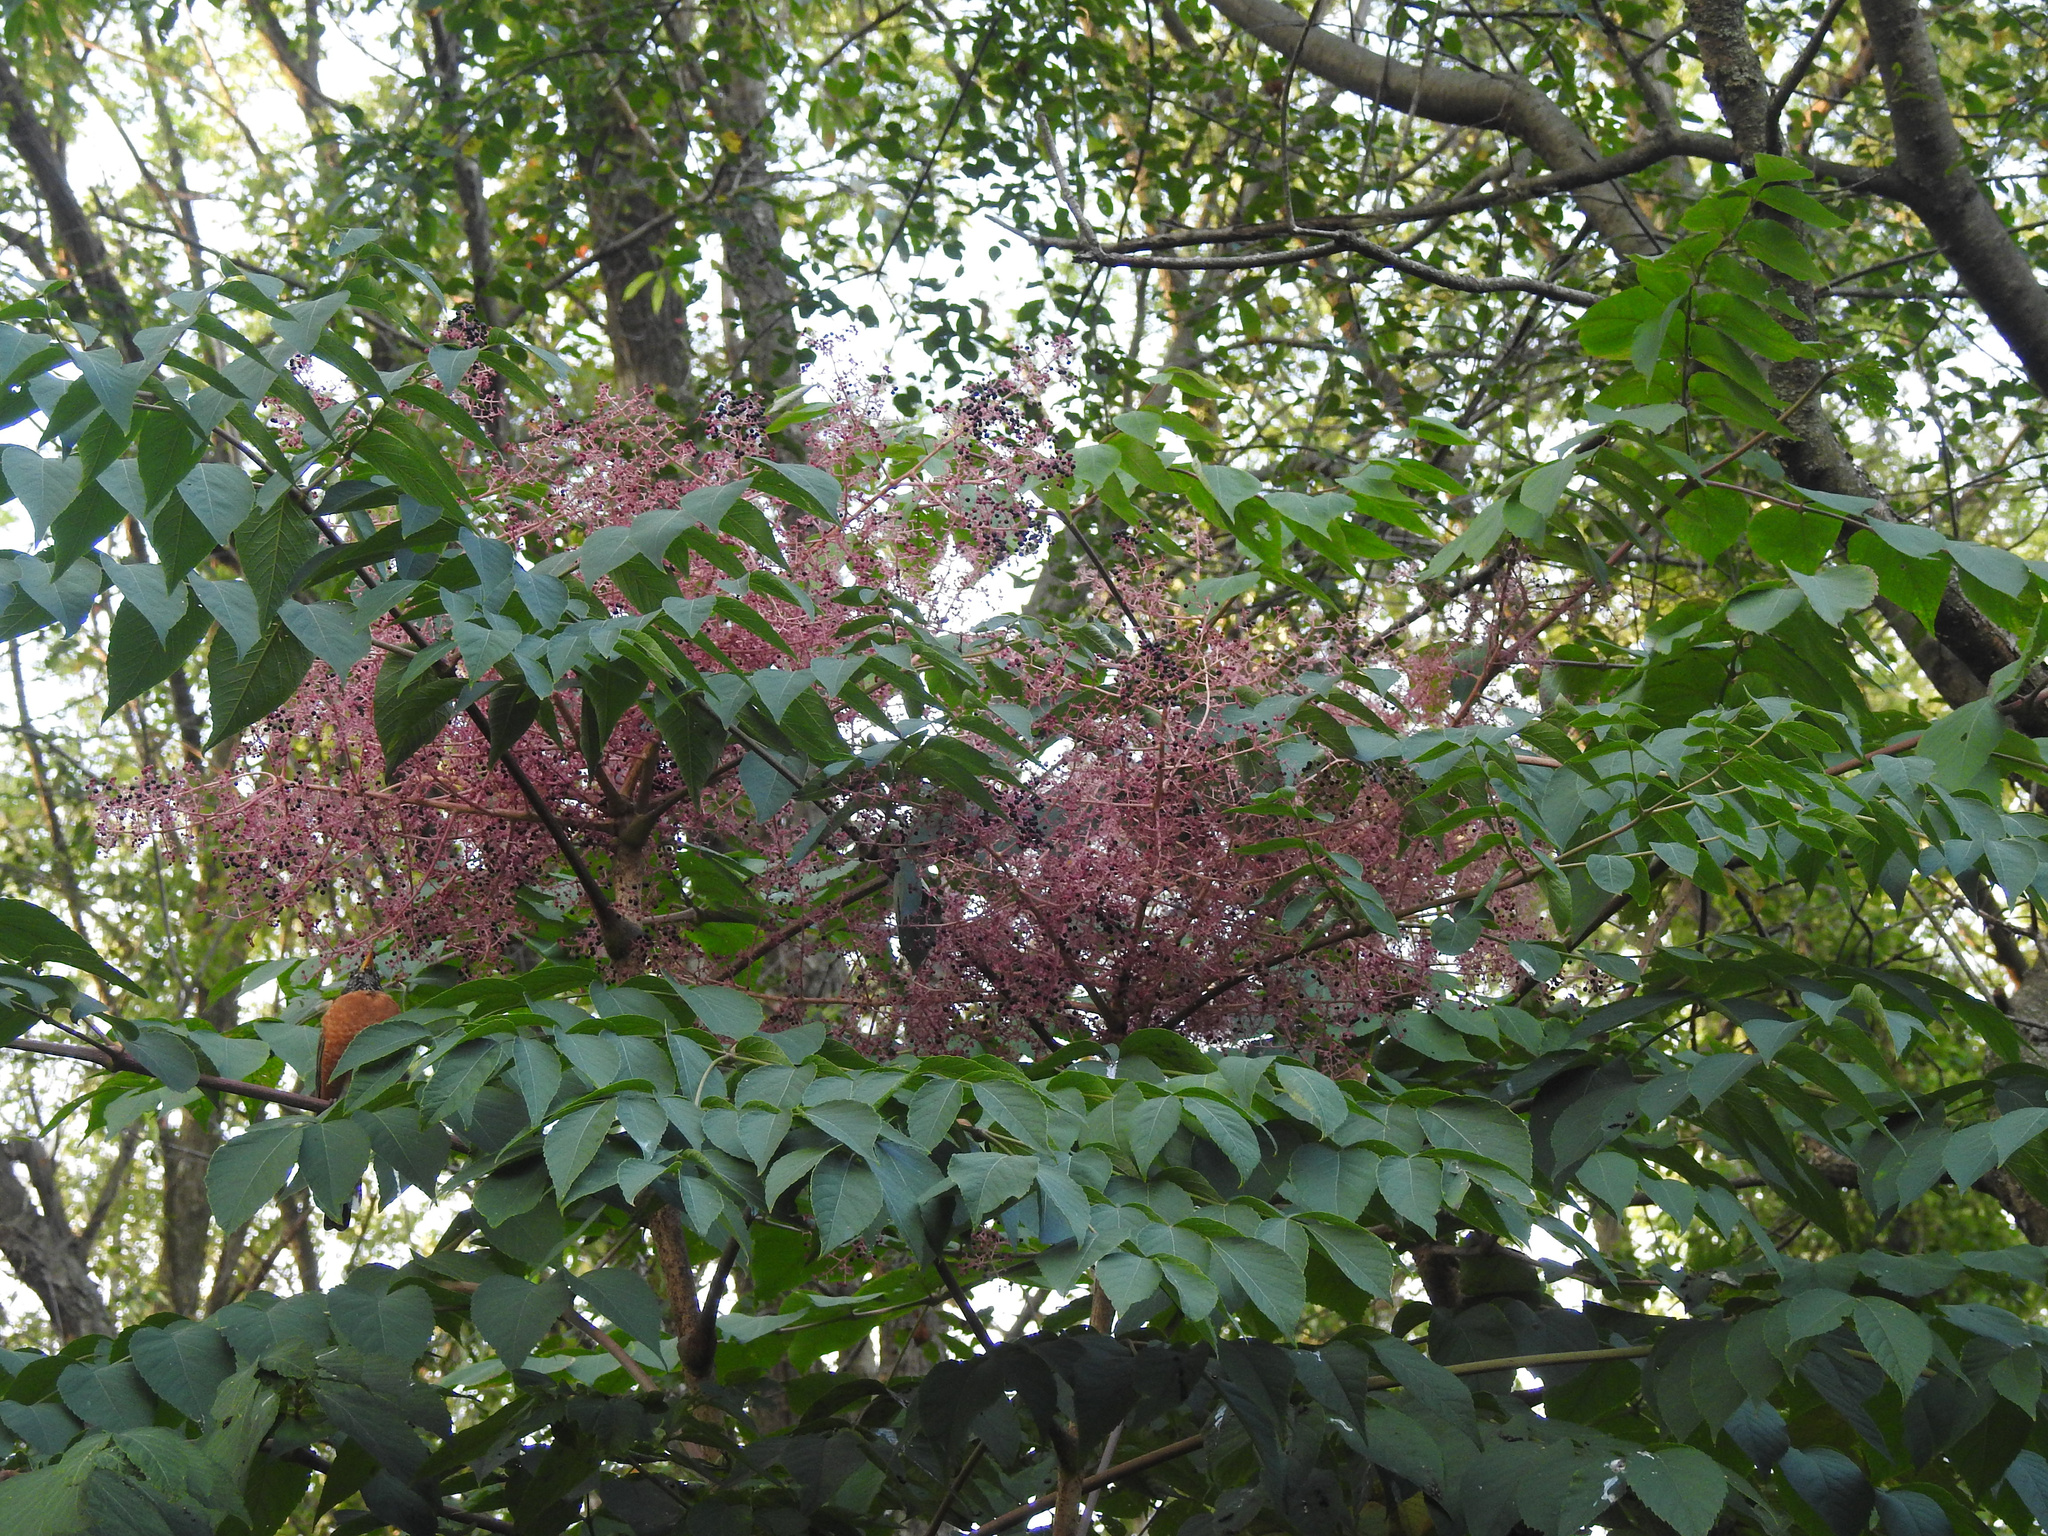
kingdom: Plantae
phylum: Tracheophyta
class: Magnoliopsida
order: Apiales
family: Araliaceae
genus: Aralia
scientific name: Aralia elata
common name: Japanese angelica-tree
